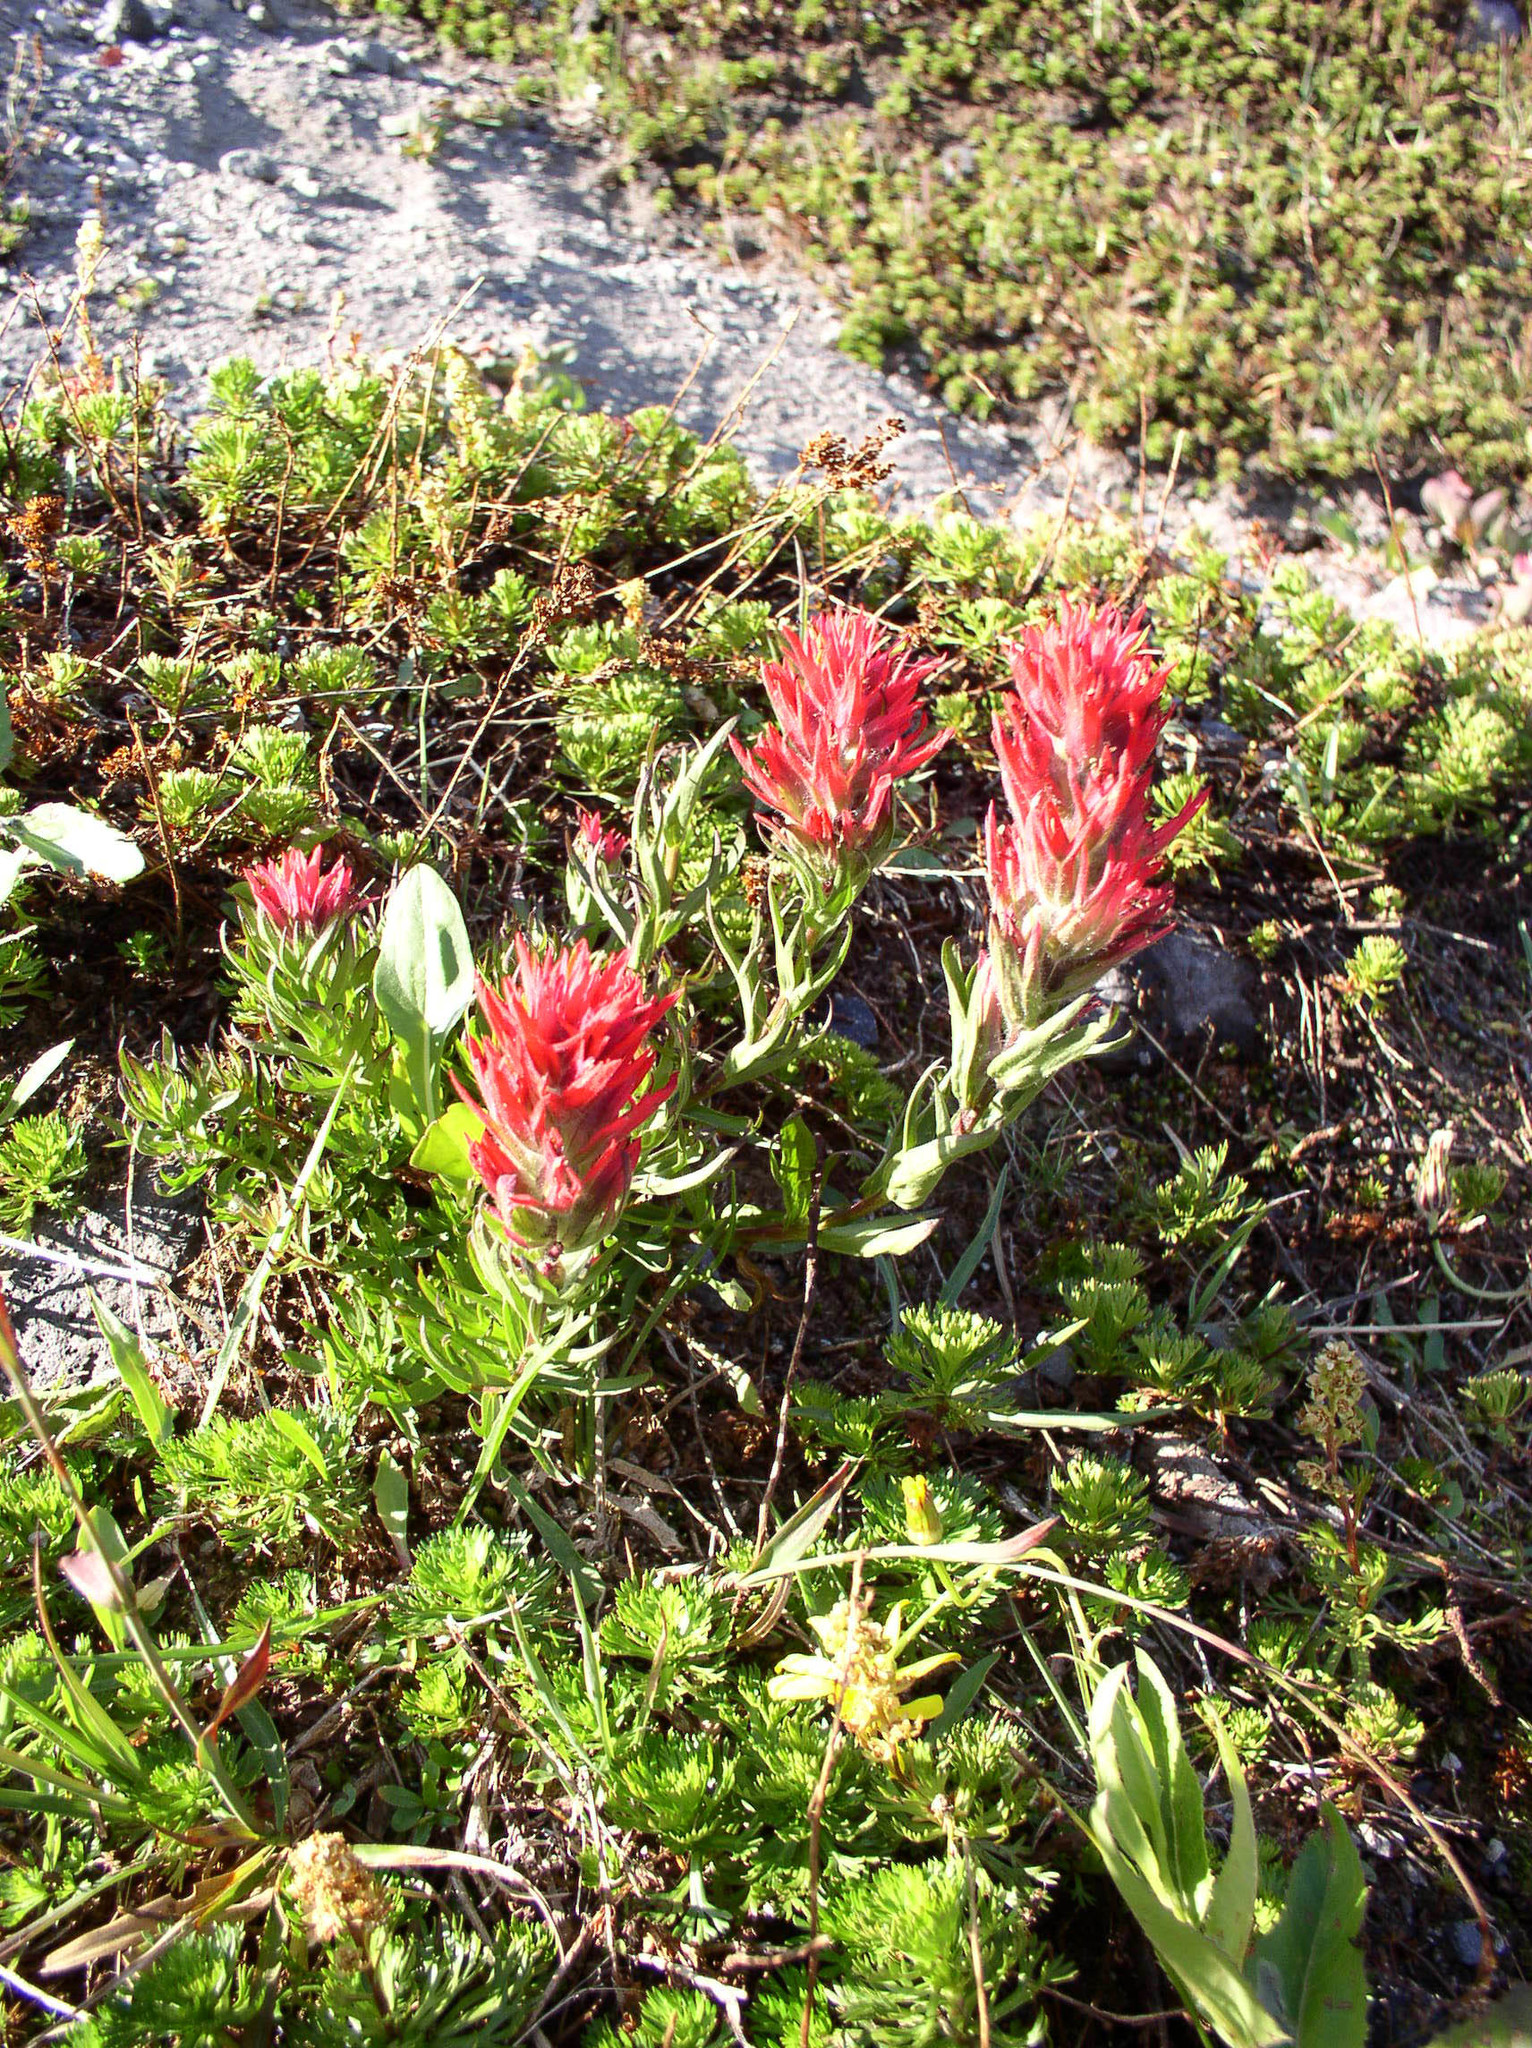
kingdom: Plantae
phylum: Tracheophyta
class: Magnoliopsida
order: Lamiales
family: Orobanchaceae
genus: Castilleja
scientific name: Castilleja parviflora
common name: Mountain paintbrush
